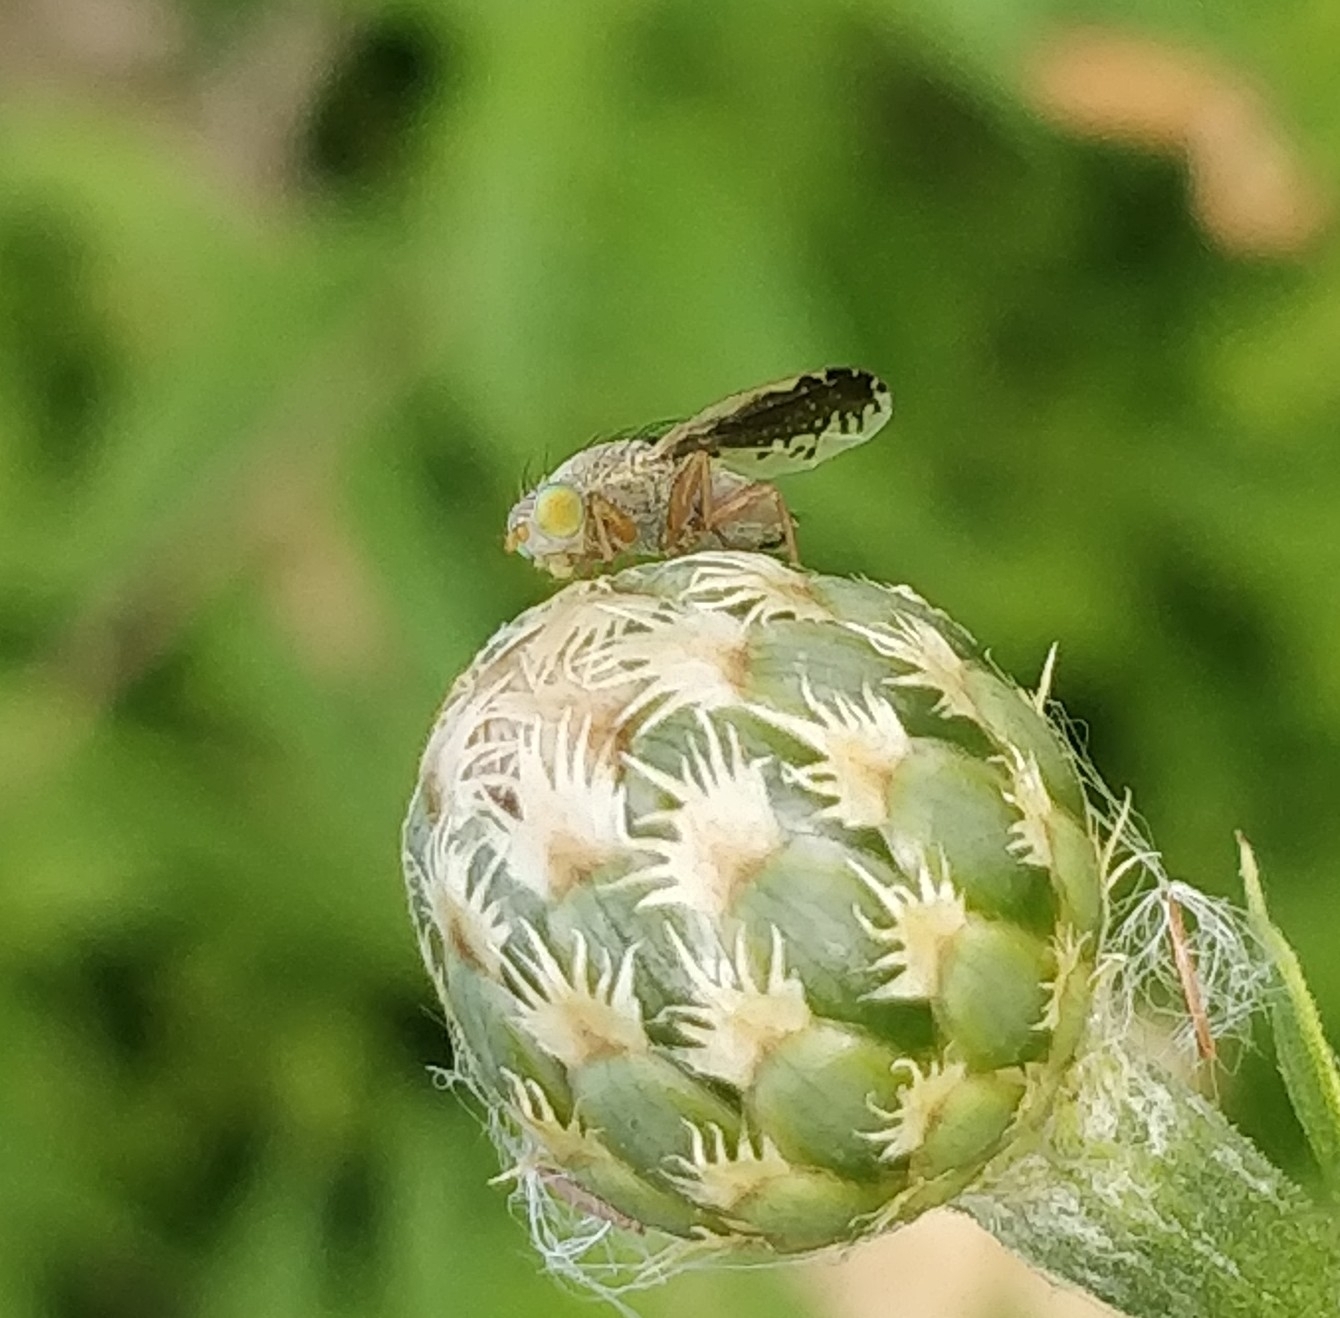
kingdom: Animalia
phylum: Arthropoda
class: Insecta
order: Diptera
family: Tephritidae
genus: Acanthiophilus
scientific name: Acanthiophilus walkeri
